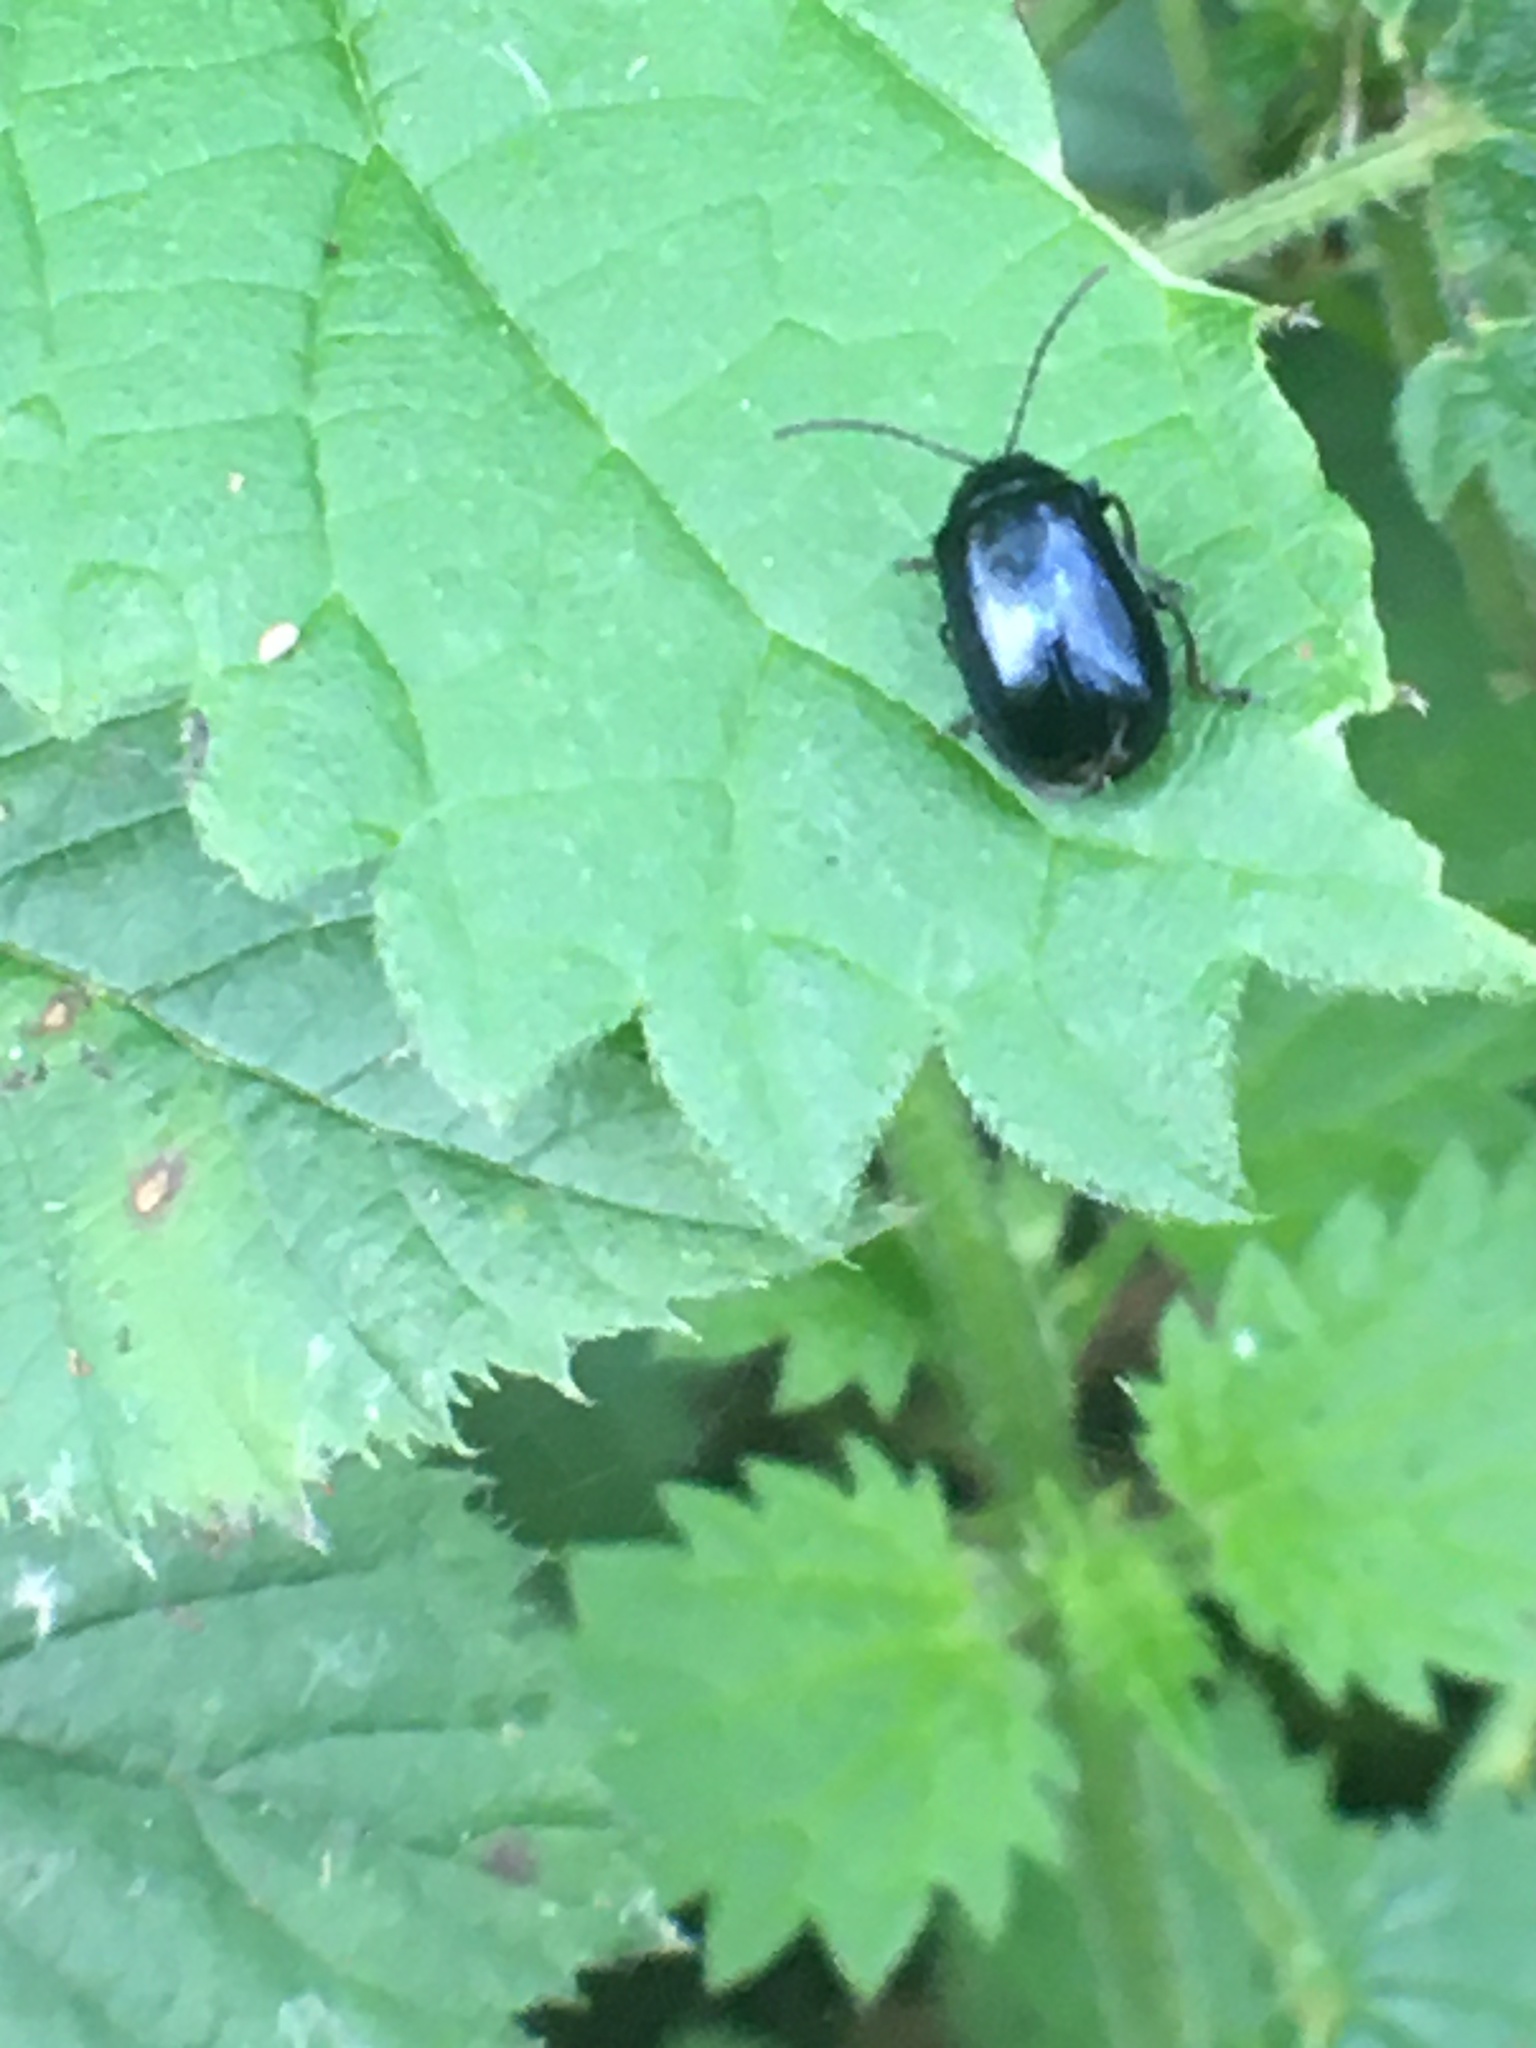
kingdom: Animalia
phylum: Arthropoda
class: Insecta
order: Coleoptera
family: Chrysomelidae
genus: Agelastica
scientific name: Agelastica alni
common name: Alder leaf beetle
